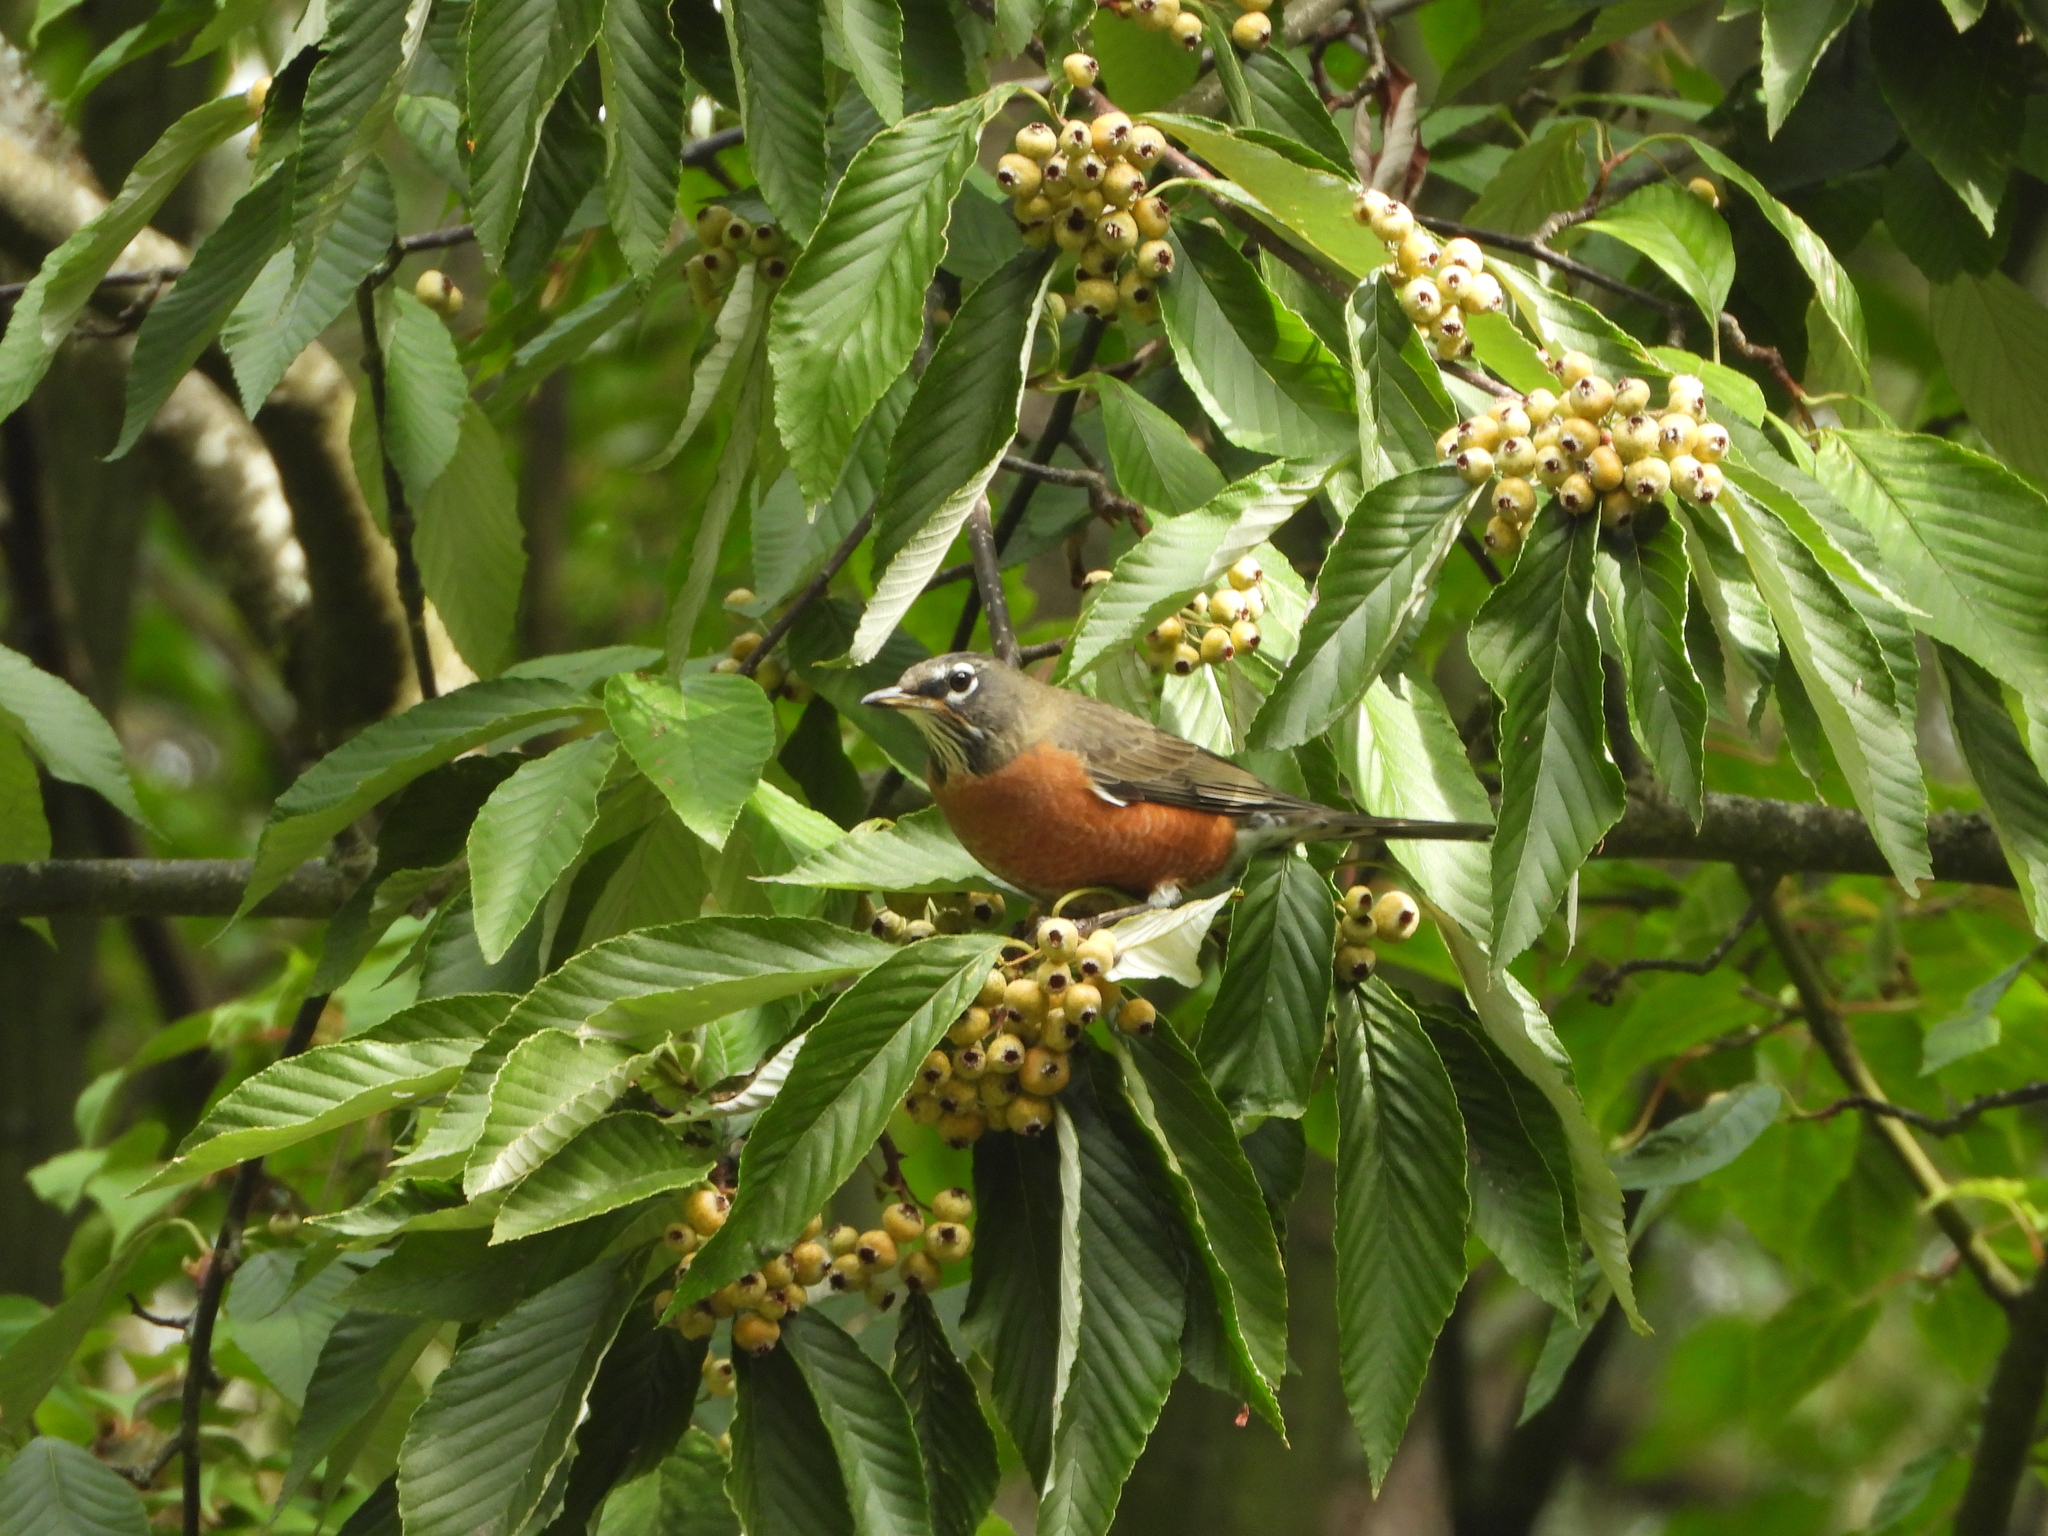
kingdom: Animalia
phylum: Chordata
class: Aves
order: Passeriformes
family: Turdidae
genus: Turdus
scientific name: Turdus migratorius
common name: American robin
